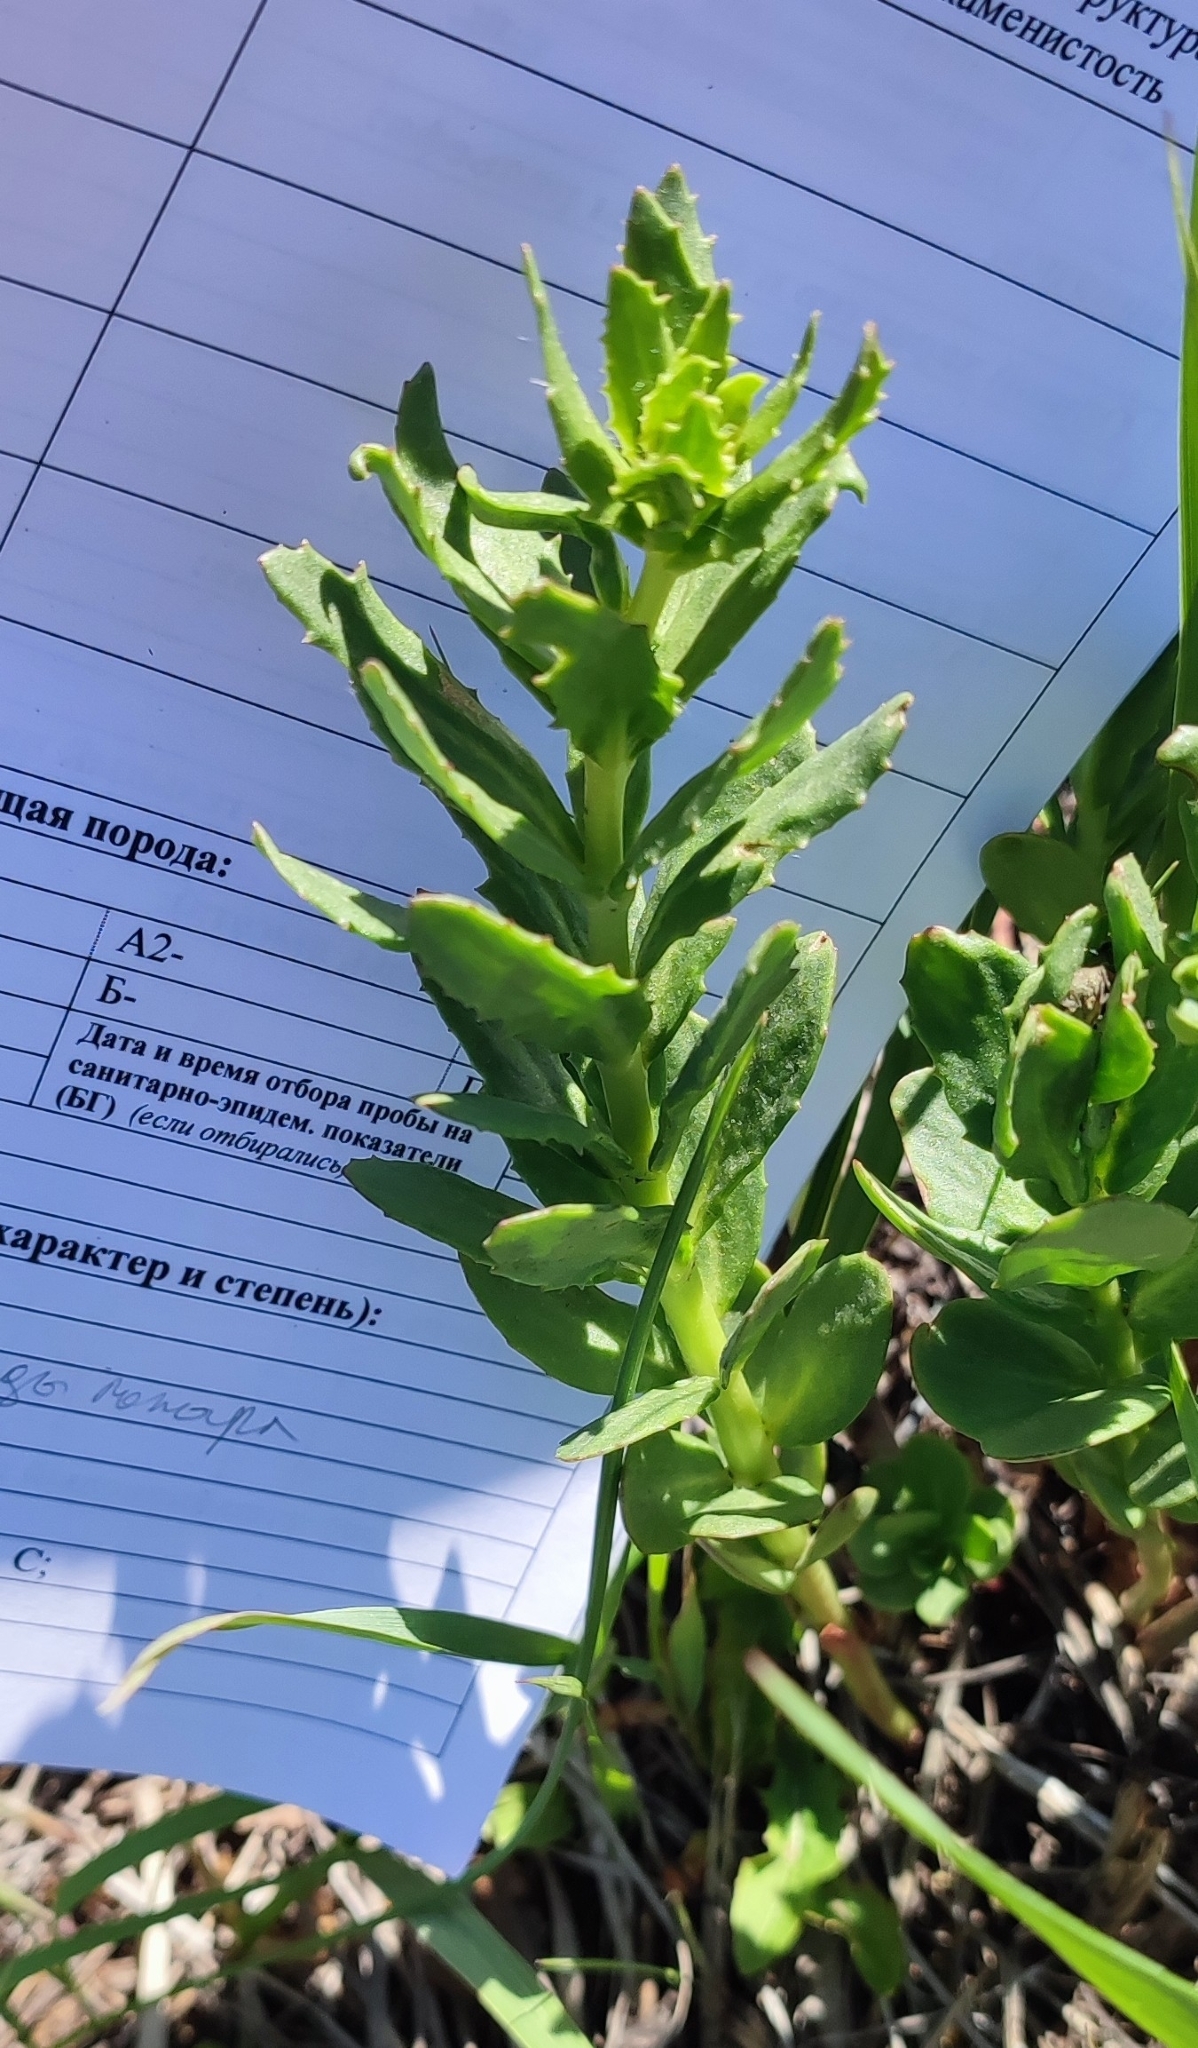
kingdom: Plantae
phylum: Tracheophyta
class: Magnoliopsida
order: Saxifragales
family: Crassulaceae
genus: Hylotelephium
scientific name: Hylotelephium telephium
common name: Live-forever
